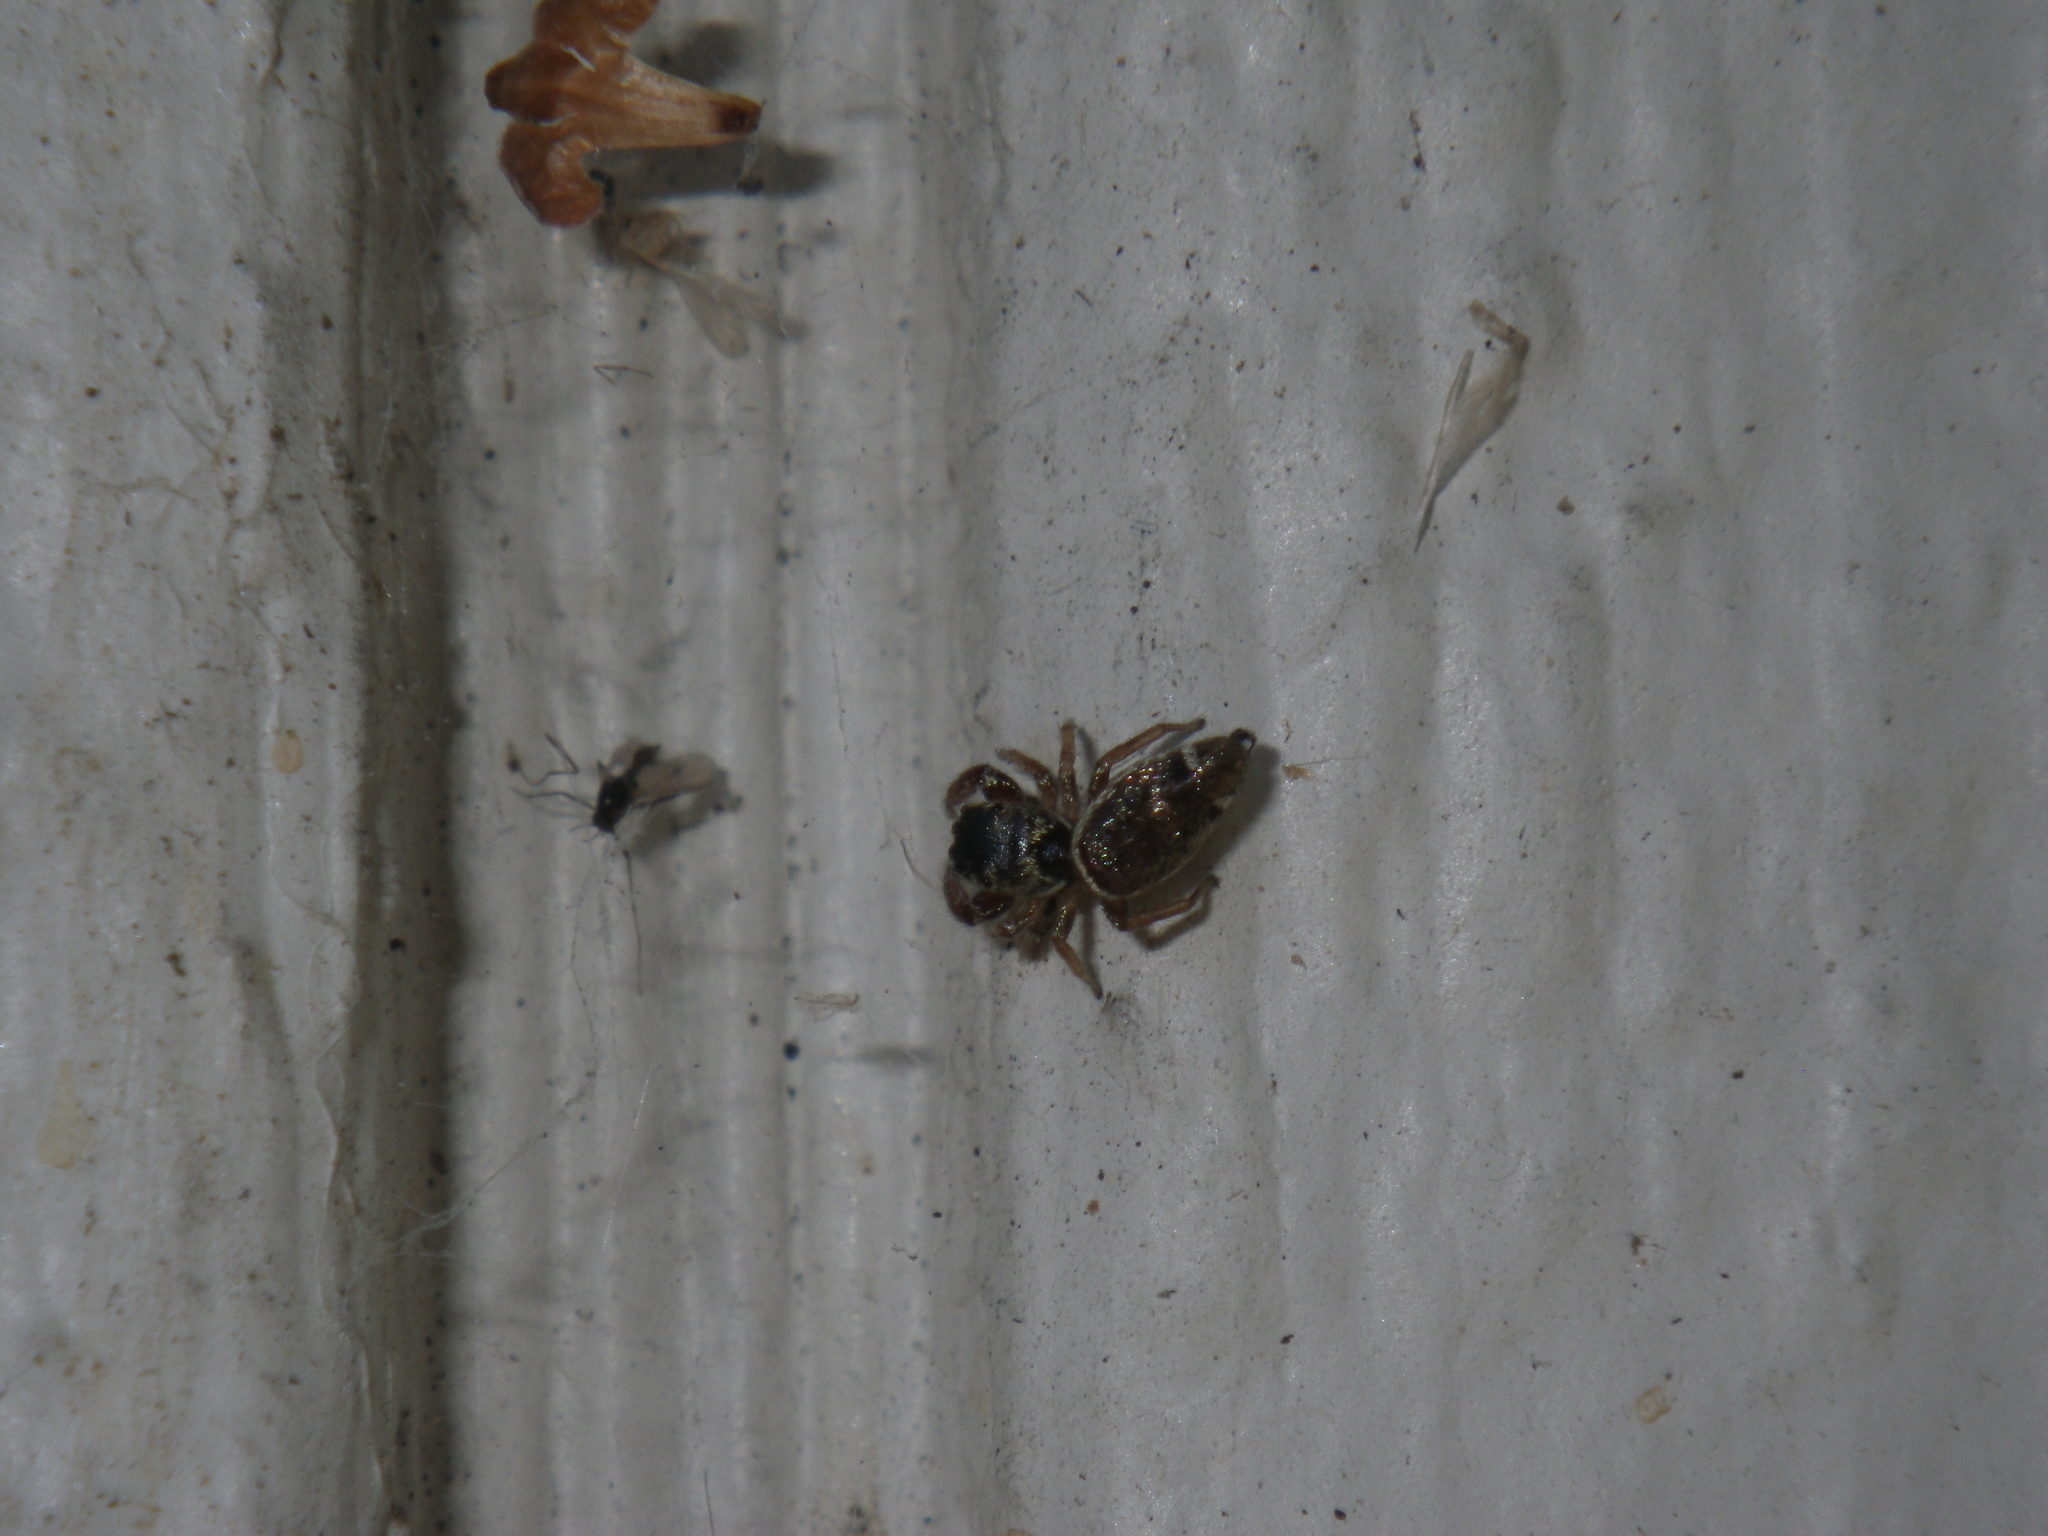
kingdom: Animalia
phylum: Arthropoda
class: Arachnida
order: Araneae
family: Salticidae
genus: Sassacus
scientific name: Sassacus vitis
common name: Jumping spiders
